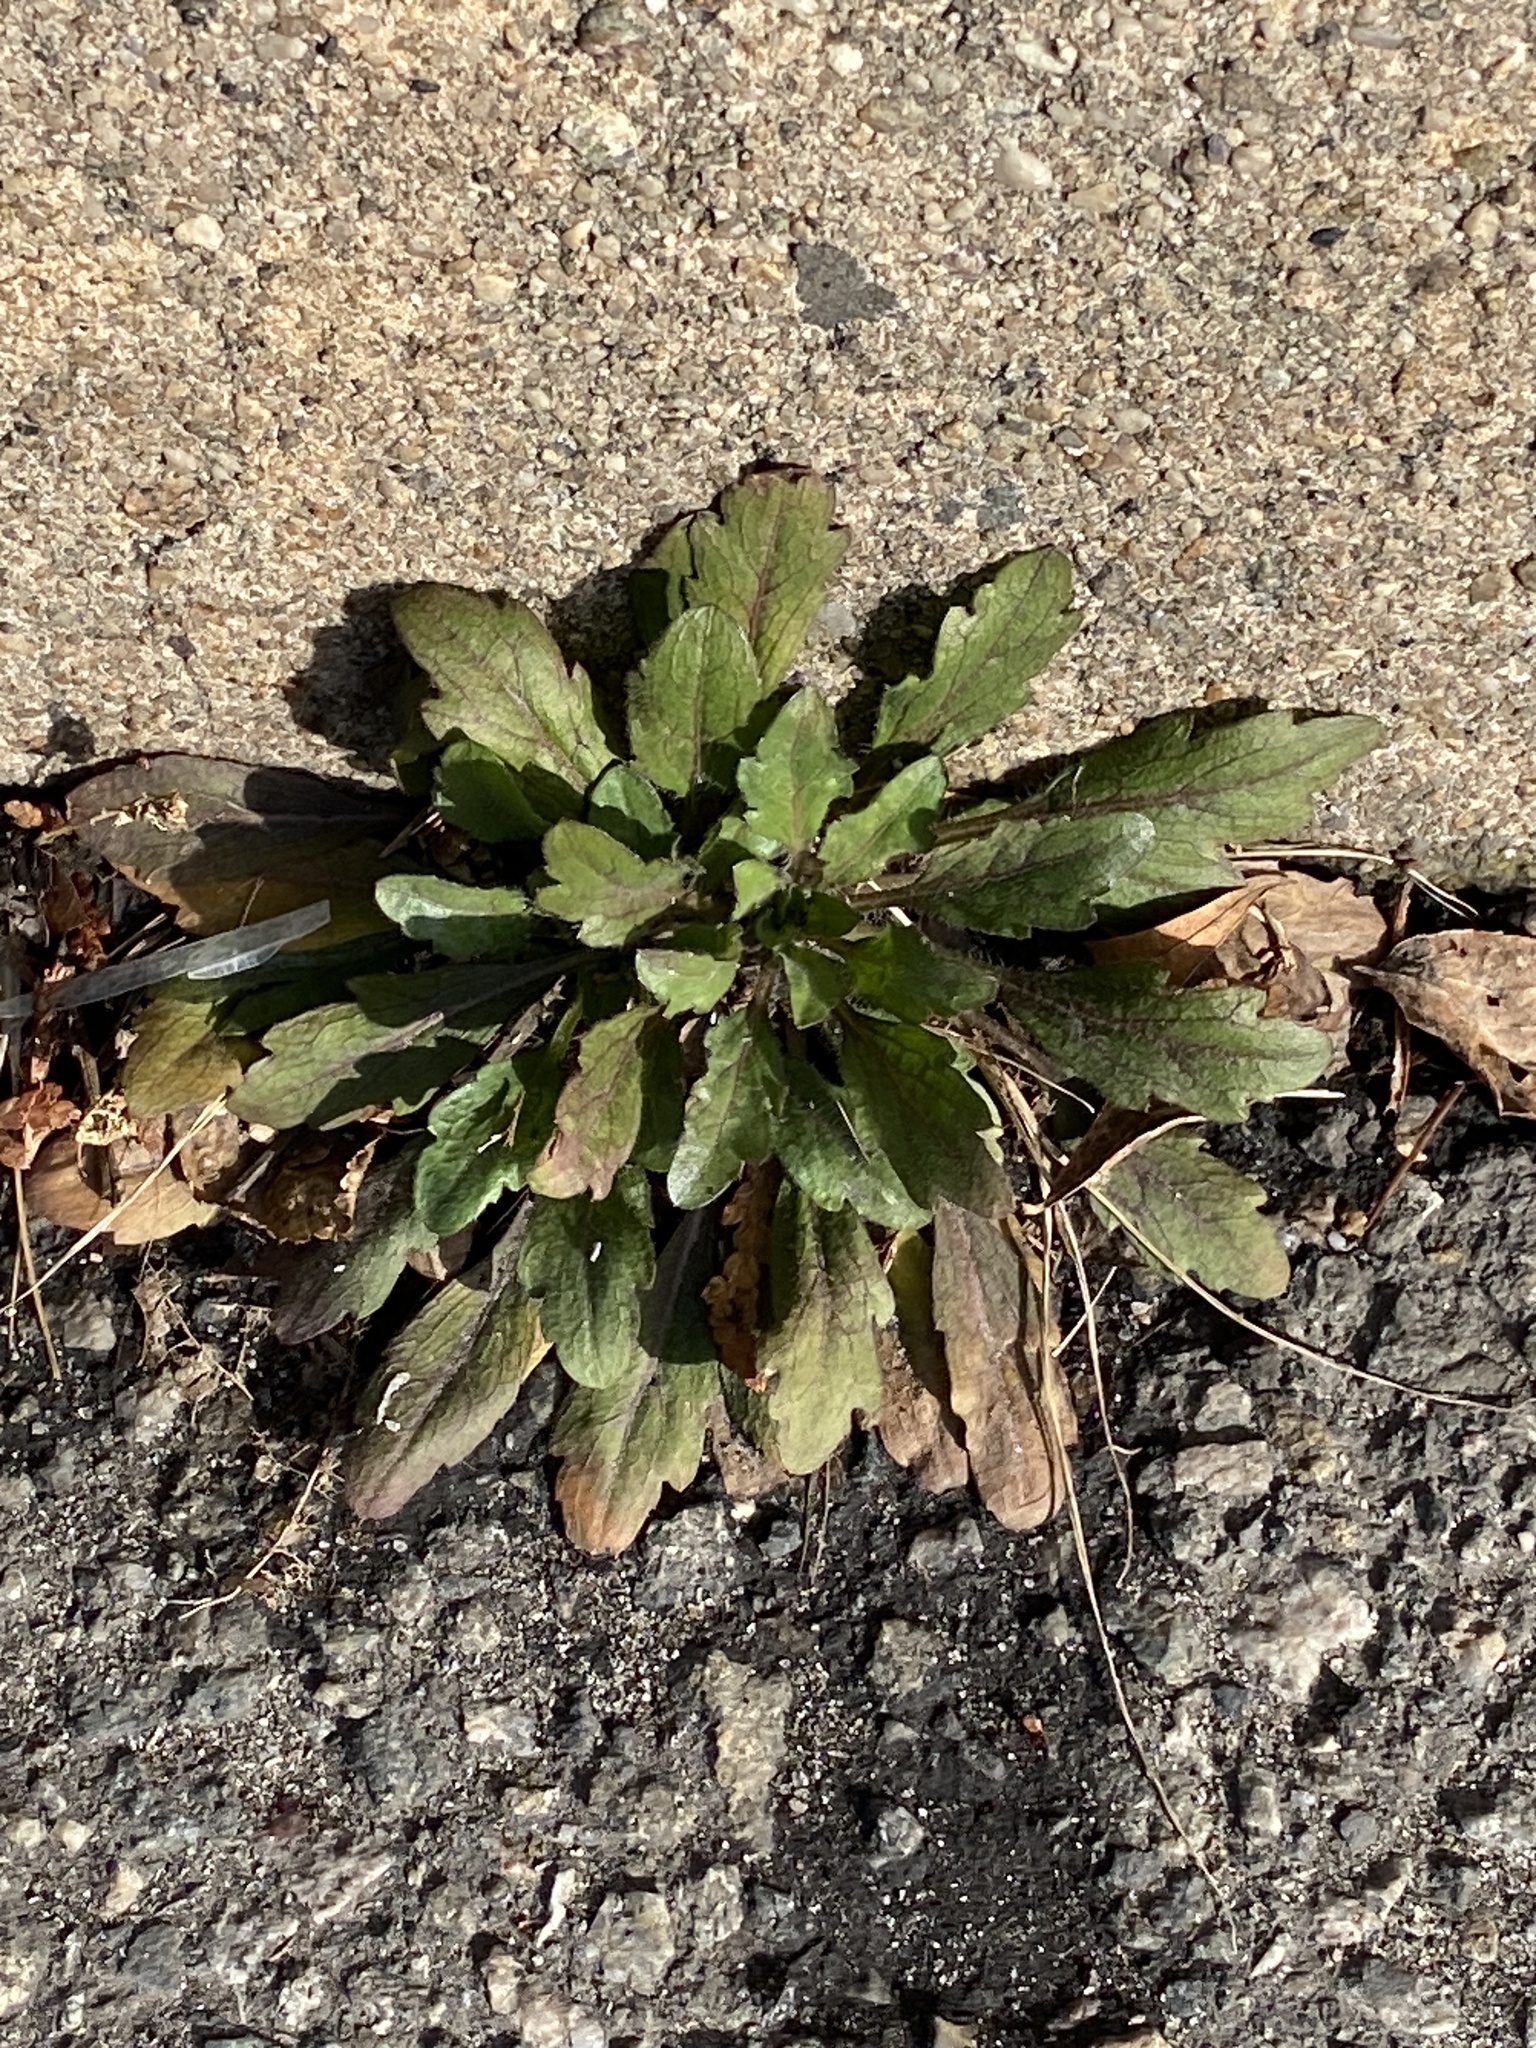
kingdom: Plantae
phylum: Tracheophyta
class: Magnoliopsida
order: Asterales
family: Asteraceae
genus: Erigeron
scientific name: Erigeron canadensis
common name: Canadian fleabane
